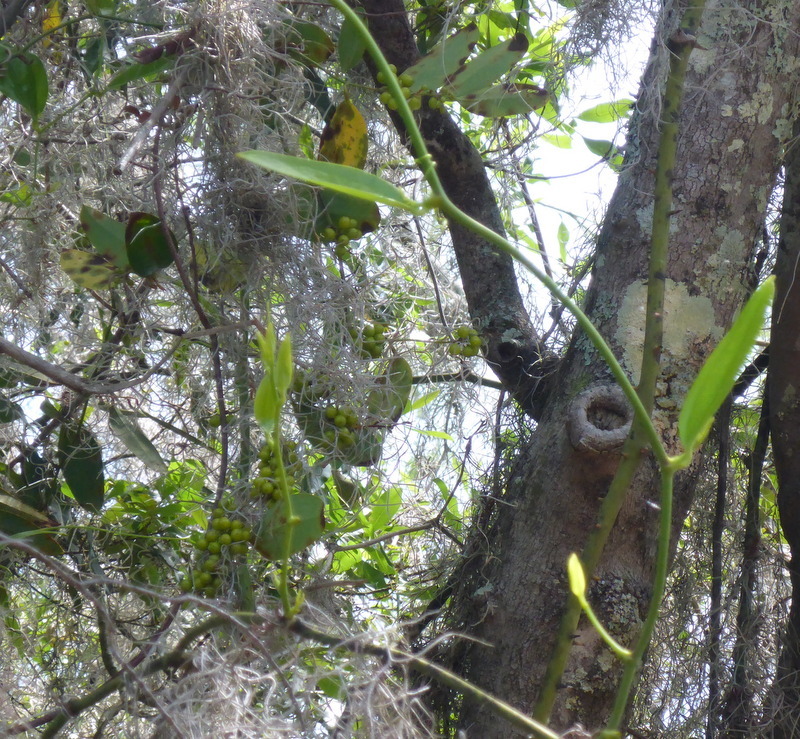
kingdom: Plantae
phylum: Tracheophyta
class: Liliopsida
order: Liliales
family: Smilacaceae
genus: Smilax
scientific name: Smilax laurifolia
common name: Bamboovine
